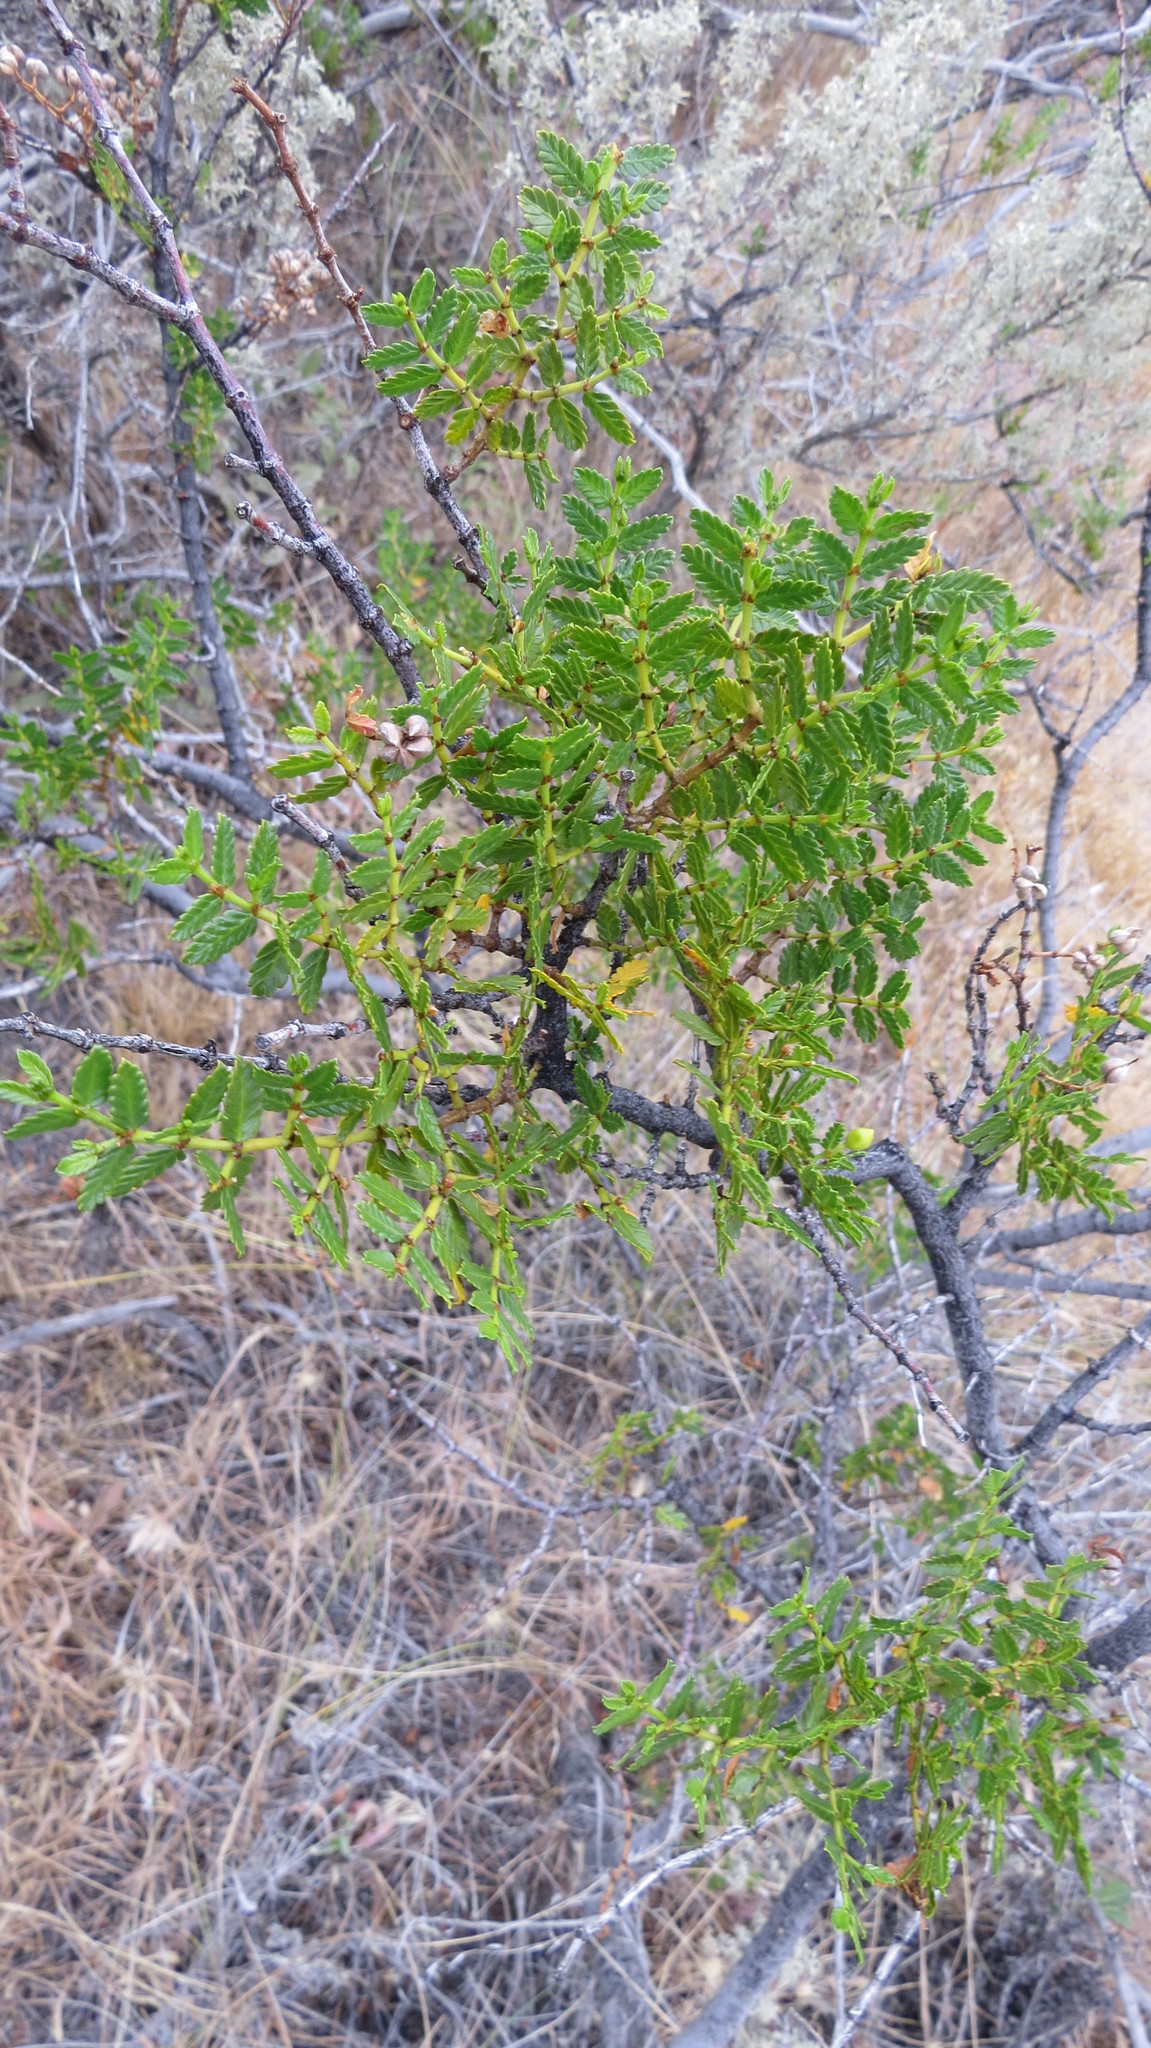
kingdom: Plantae
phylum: Tracheophyta
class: Magnoliopsida
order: Zygophyllales
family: Zygophyllaceae
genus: Larrea
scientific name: Larrea nitida
